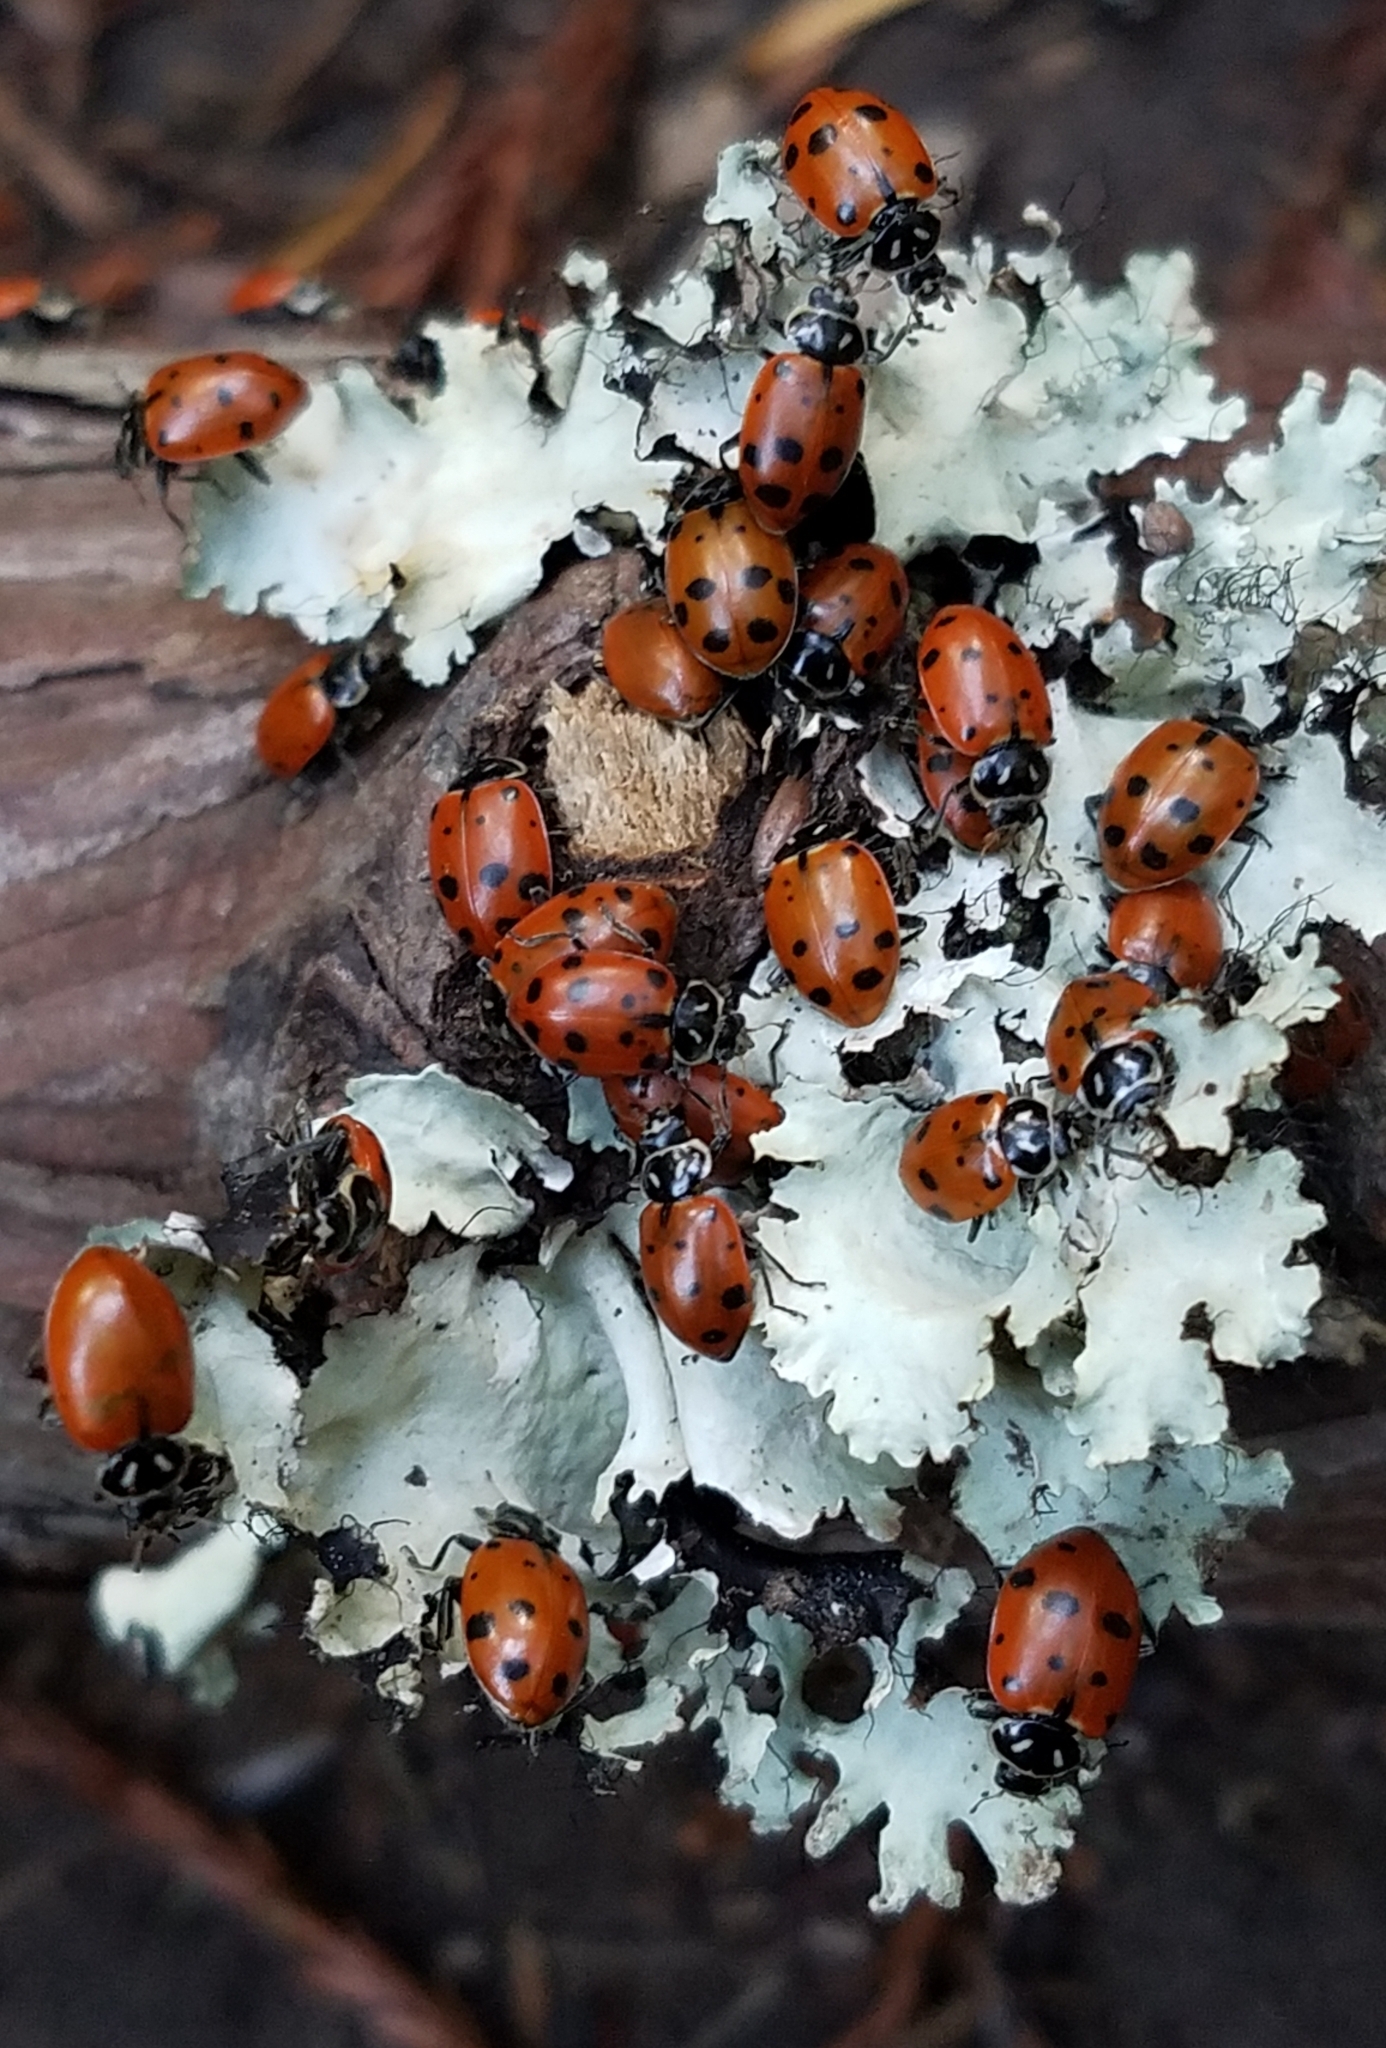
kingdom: Animalia
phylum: Arthropoda
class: Insecta
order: Coleoptera
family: Coccinellidae
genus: Hippodamia
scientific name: Hippodamia convergens
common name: Convergent lady beetle
